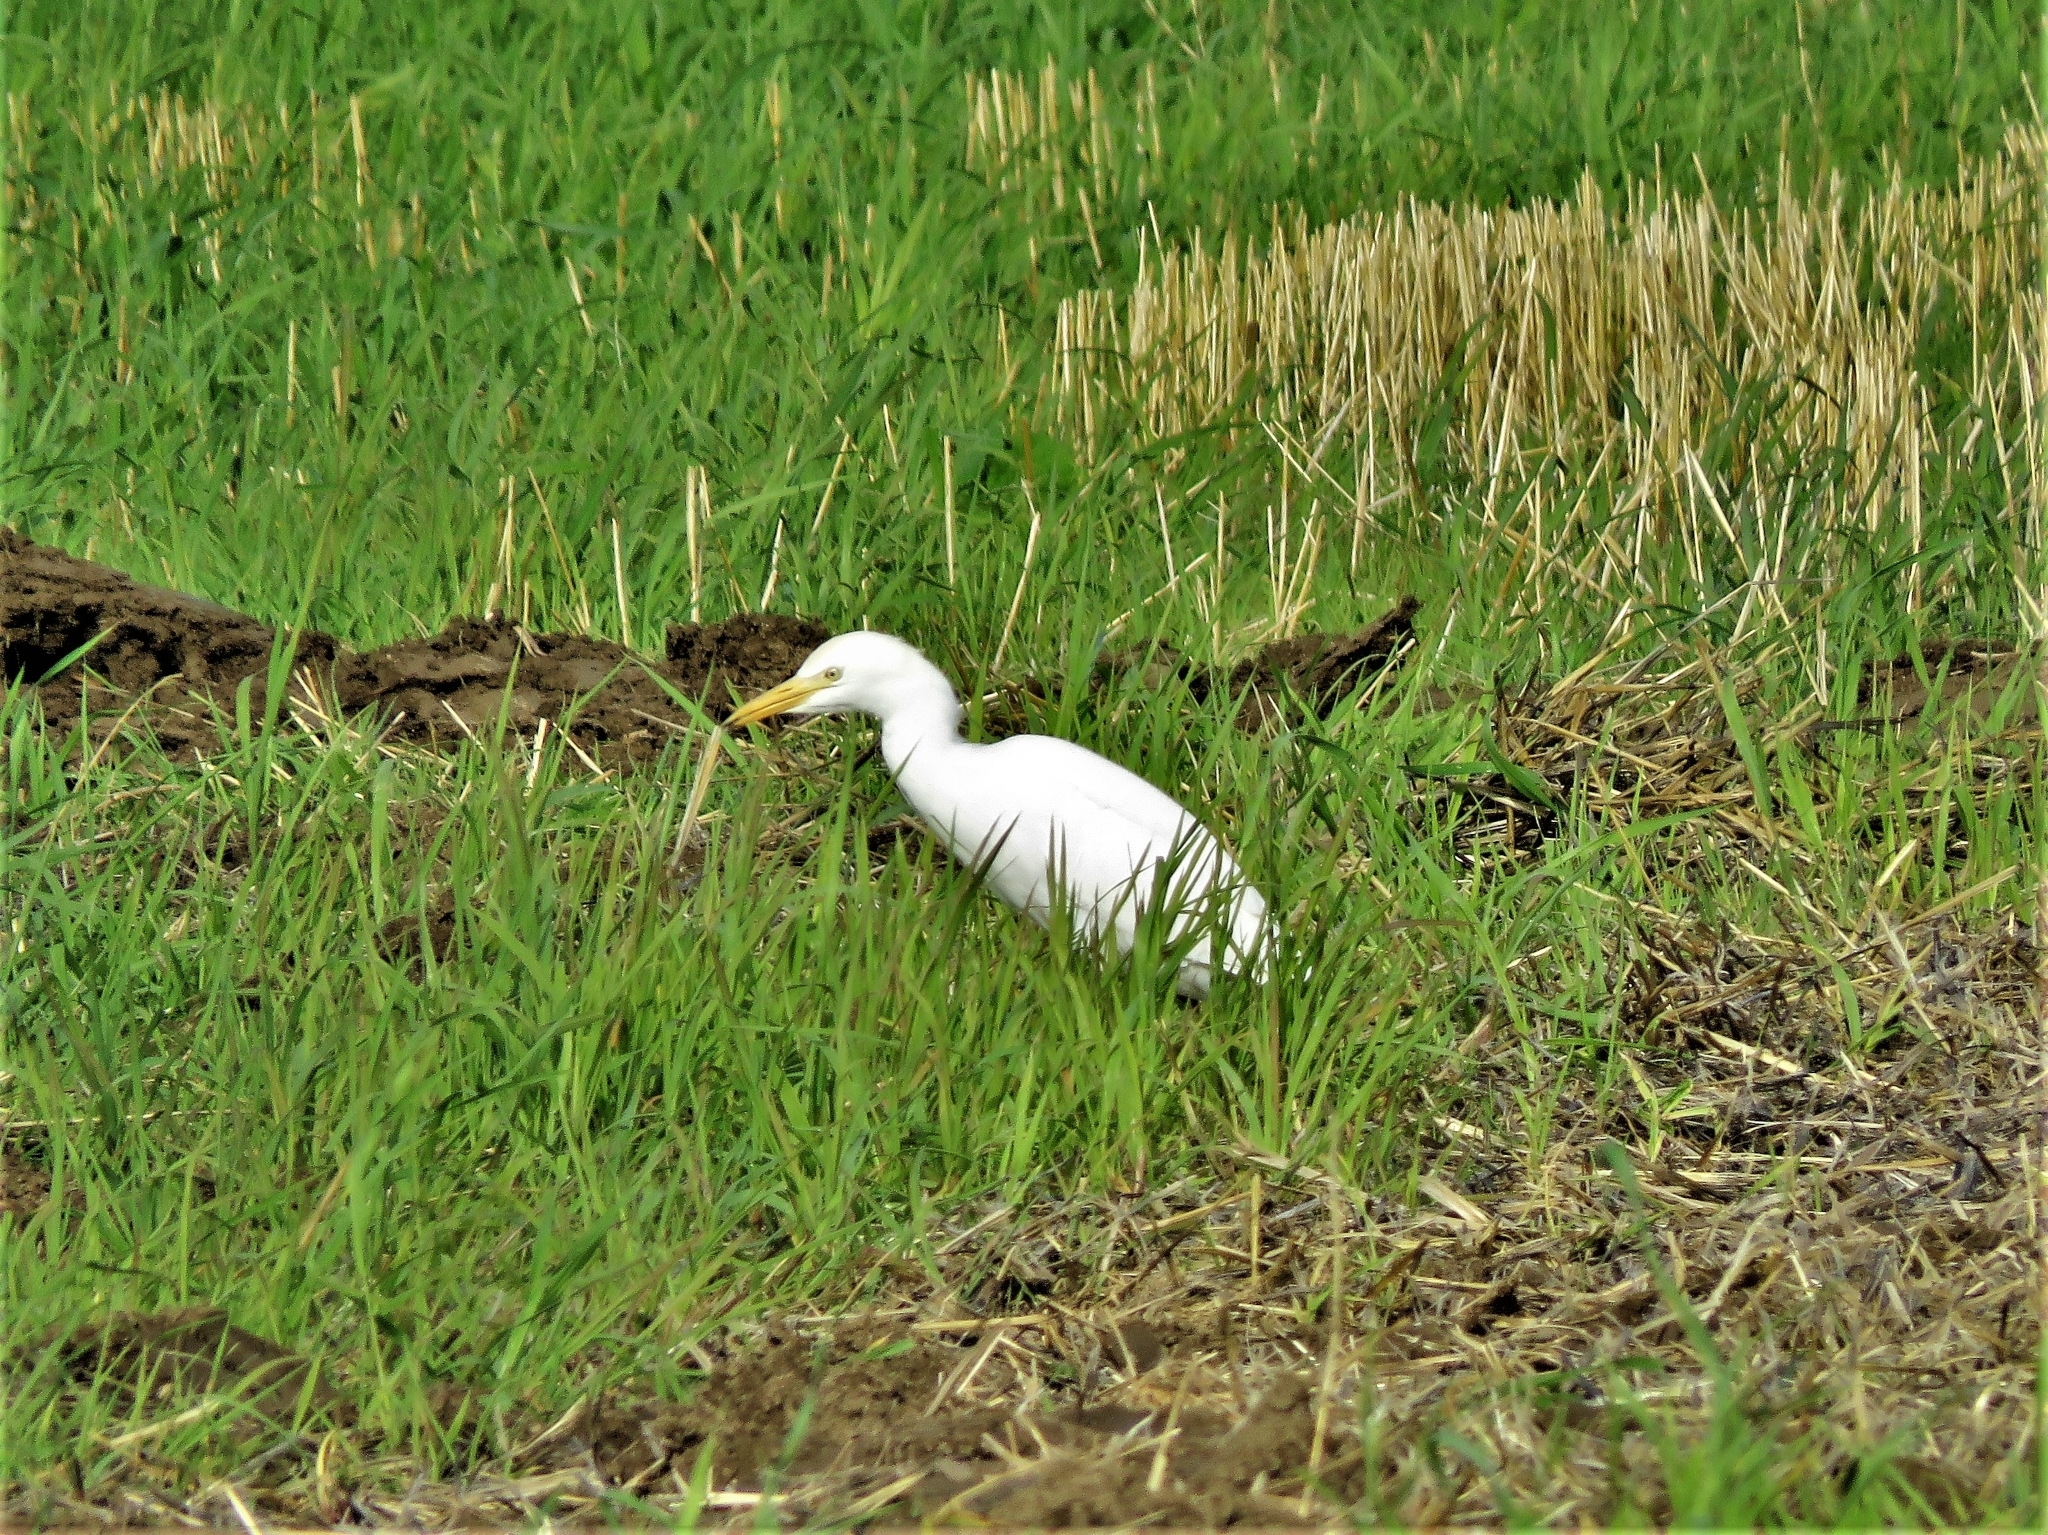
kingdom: Animalia
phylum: Chordata
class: Aves
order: Pelecaniformes
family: Ardeidae
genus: Bubulcus
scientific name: Bubulcus ibis
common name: Cattle egret
